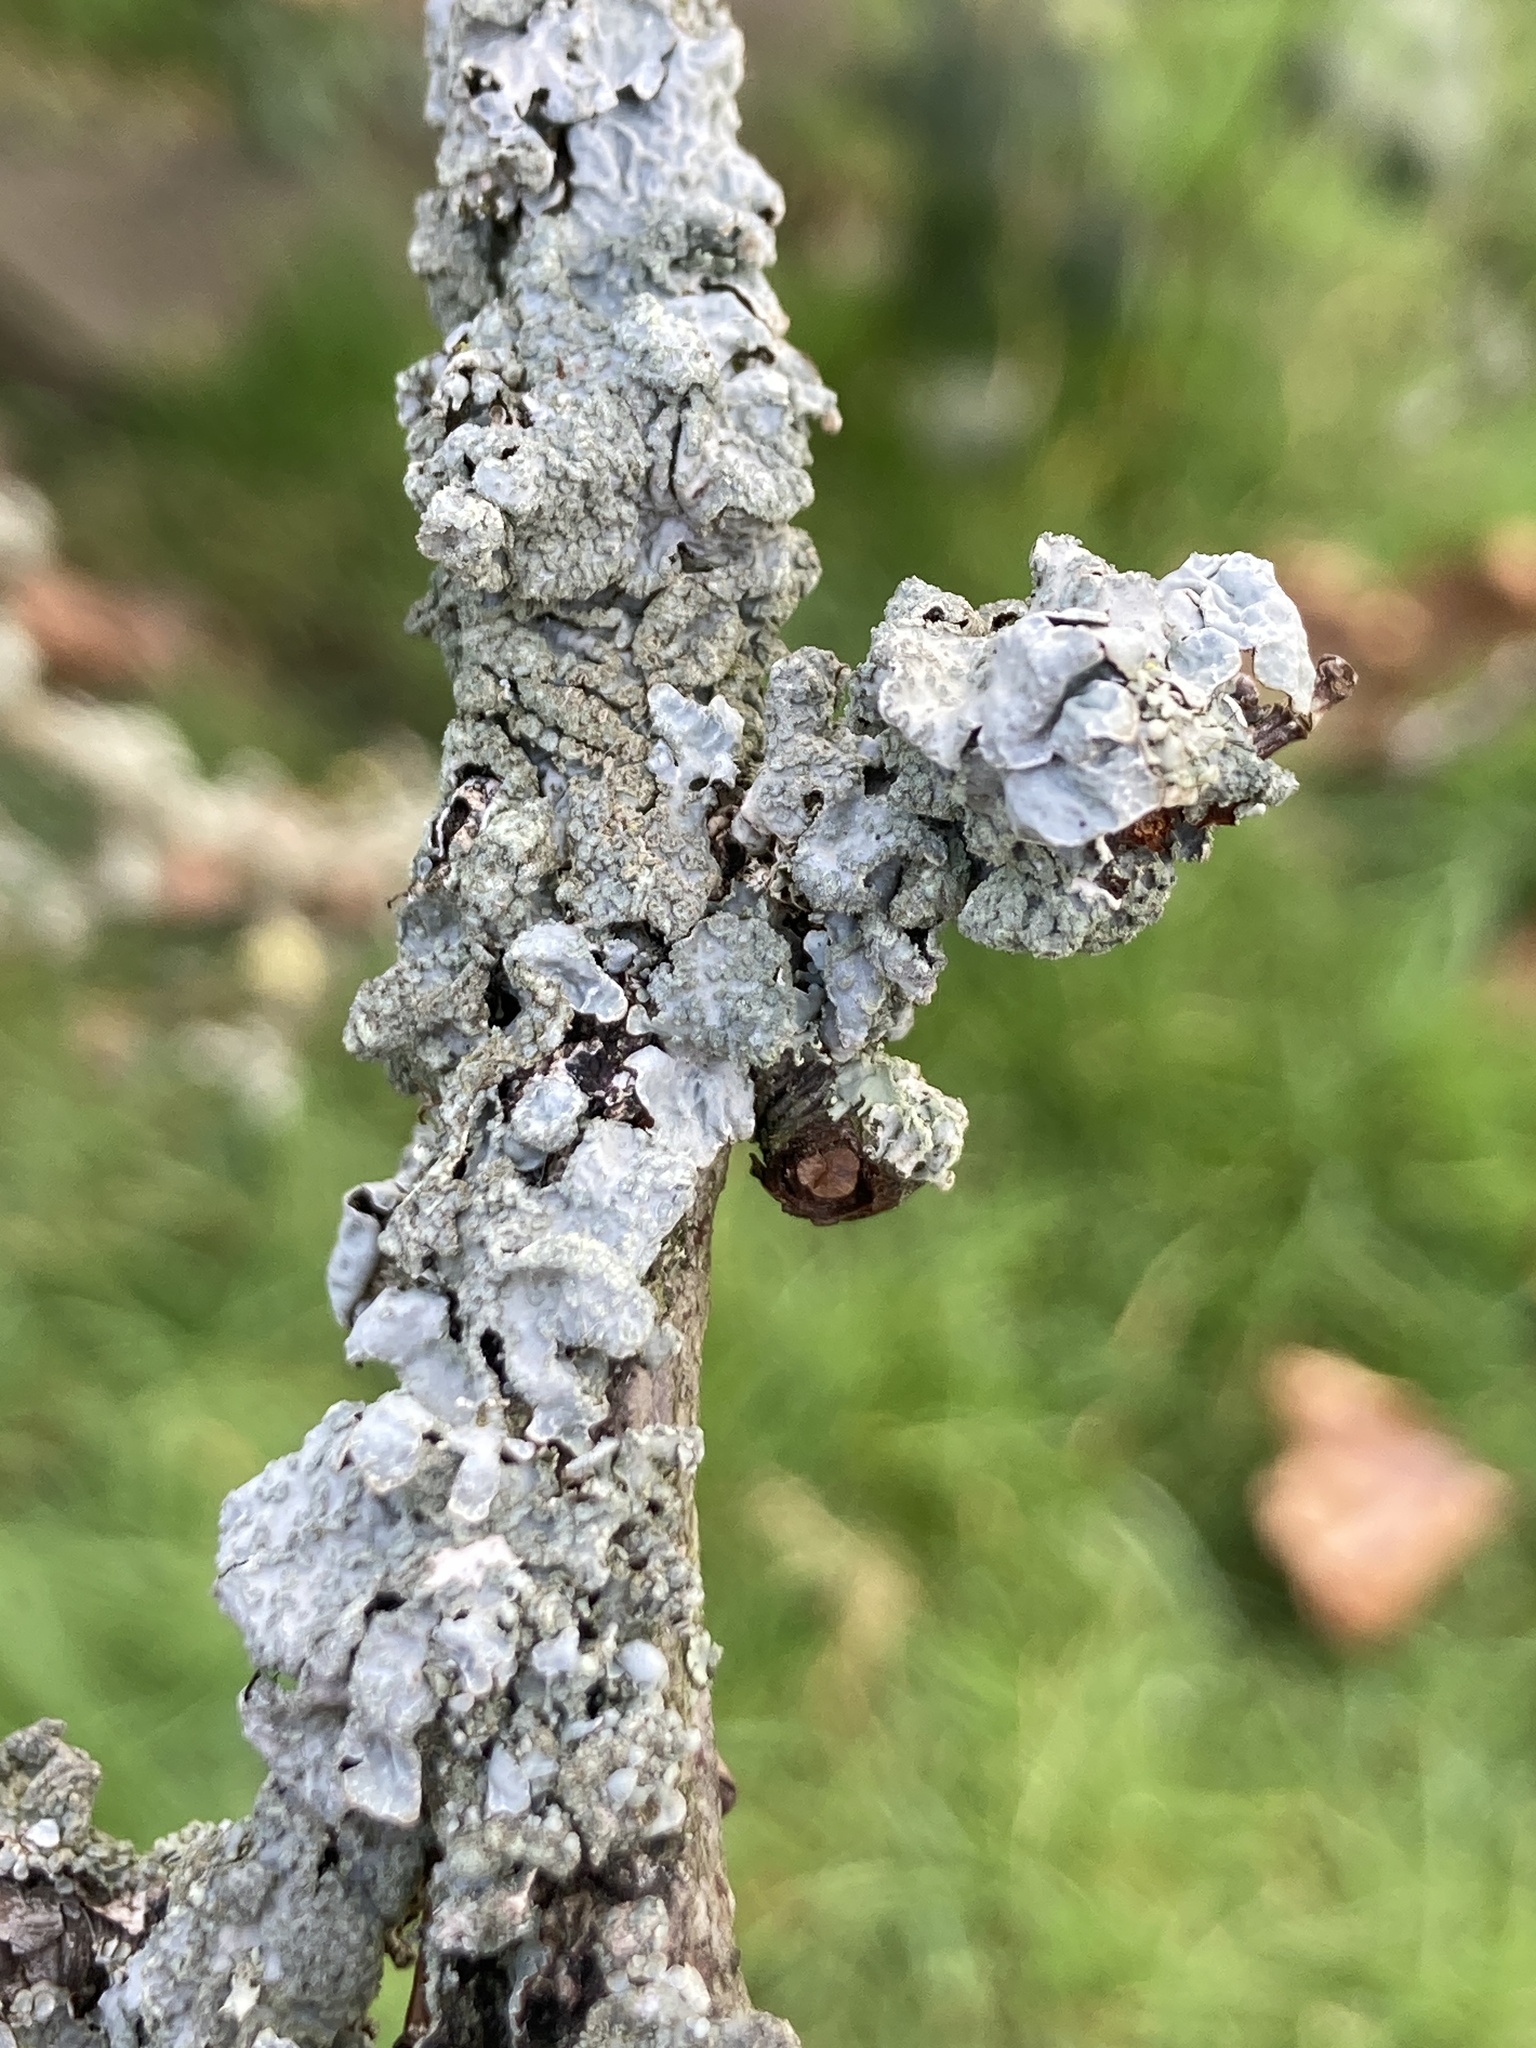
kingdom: Fungi
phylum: Ascomycota
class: Lecanoromycetes
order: Lecanorales
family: Parmeliaceae
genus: Parmelia
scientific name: Parmelia sulcata
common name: Netted shield lichen
